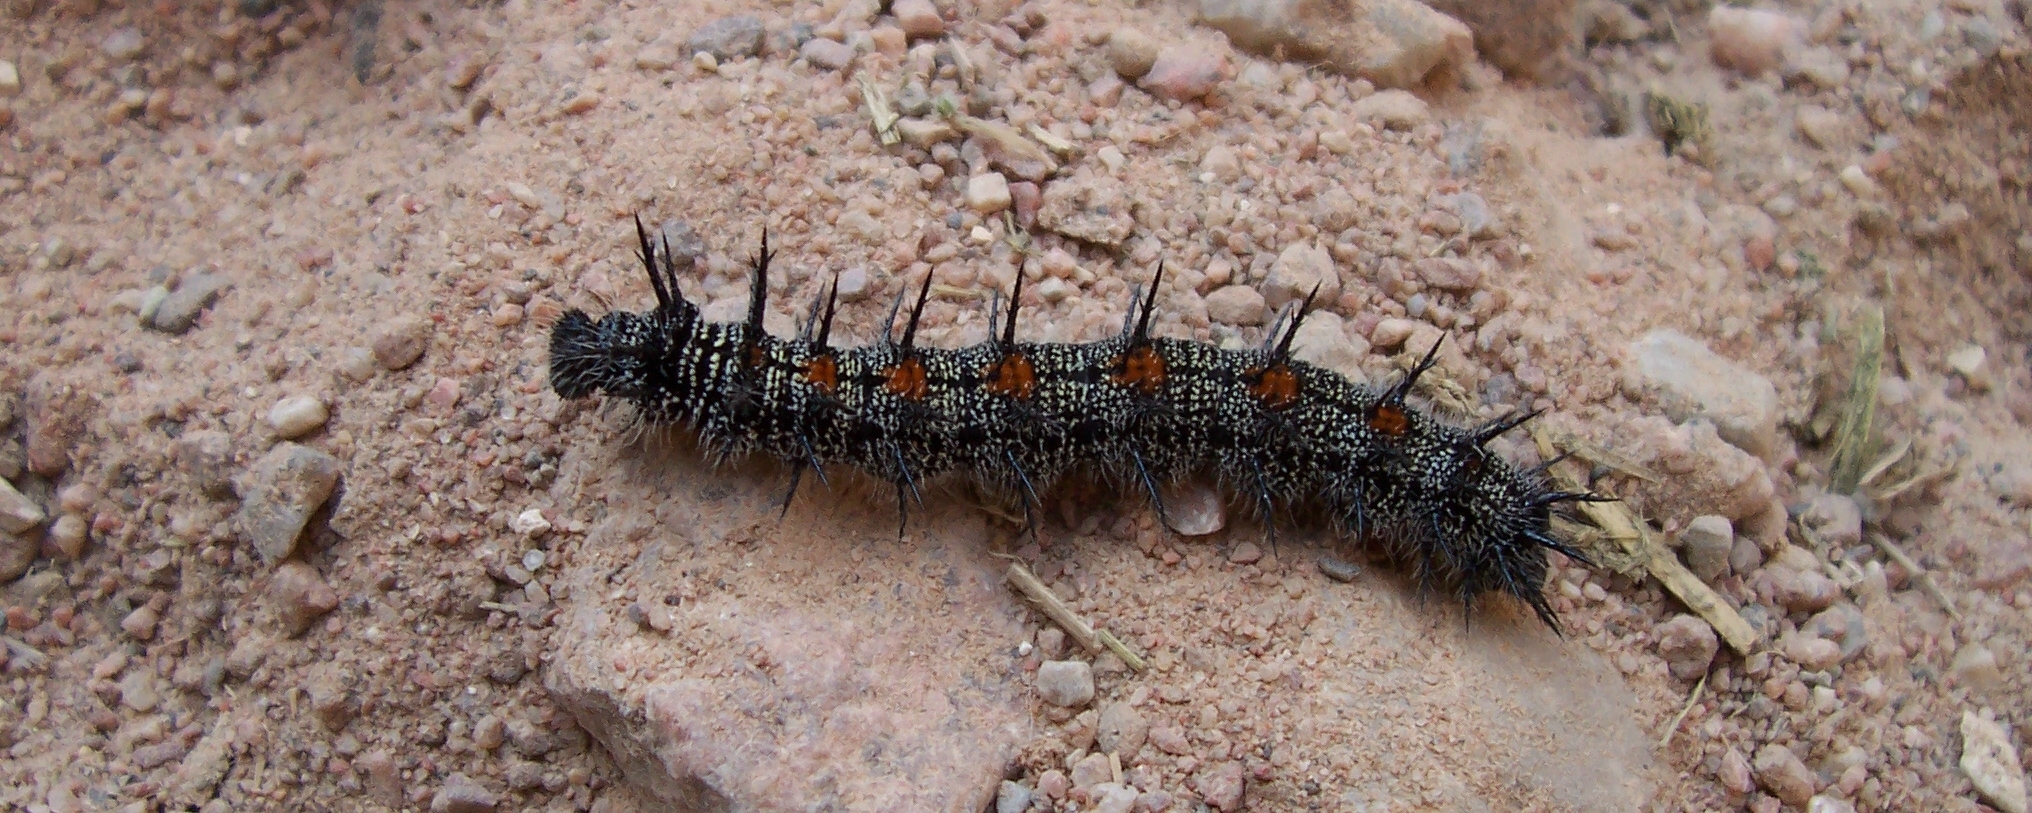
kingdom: Animalia
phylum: Arthropoda
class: Insecta
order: Lepidoptera
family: Nymphalidae
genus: Nymphalis
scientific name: Nymphalis antiopa
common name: Camberwell beauty
